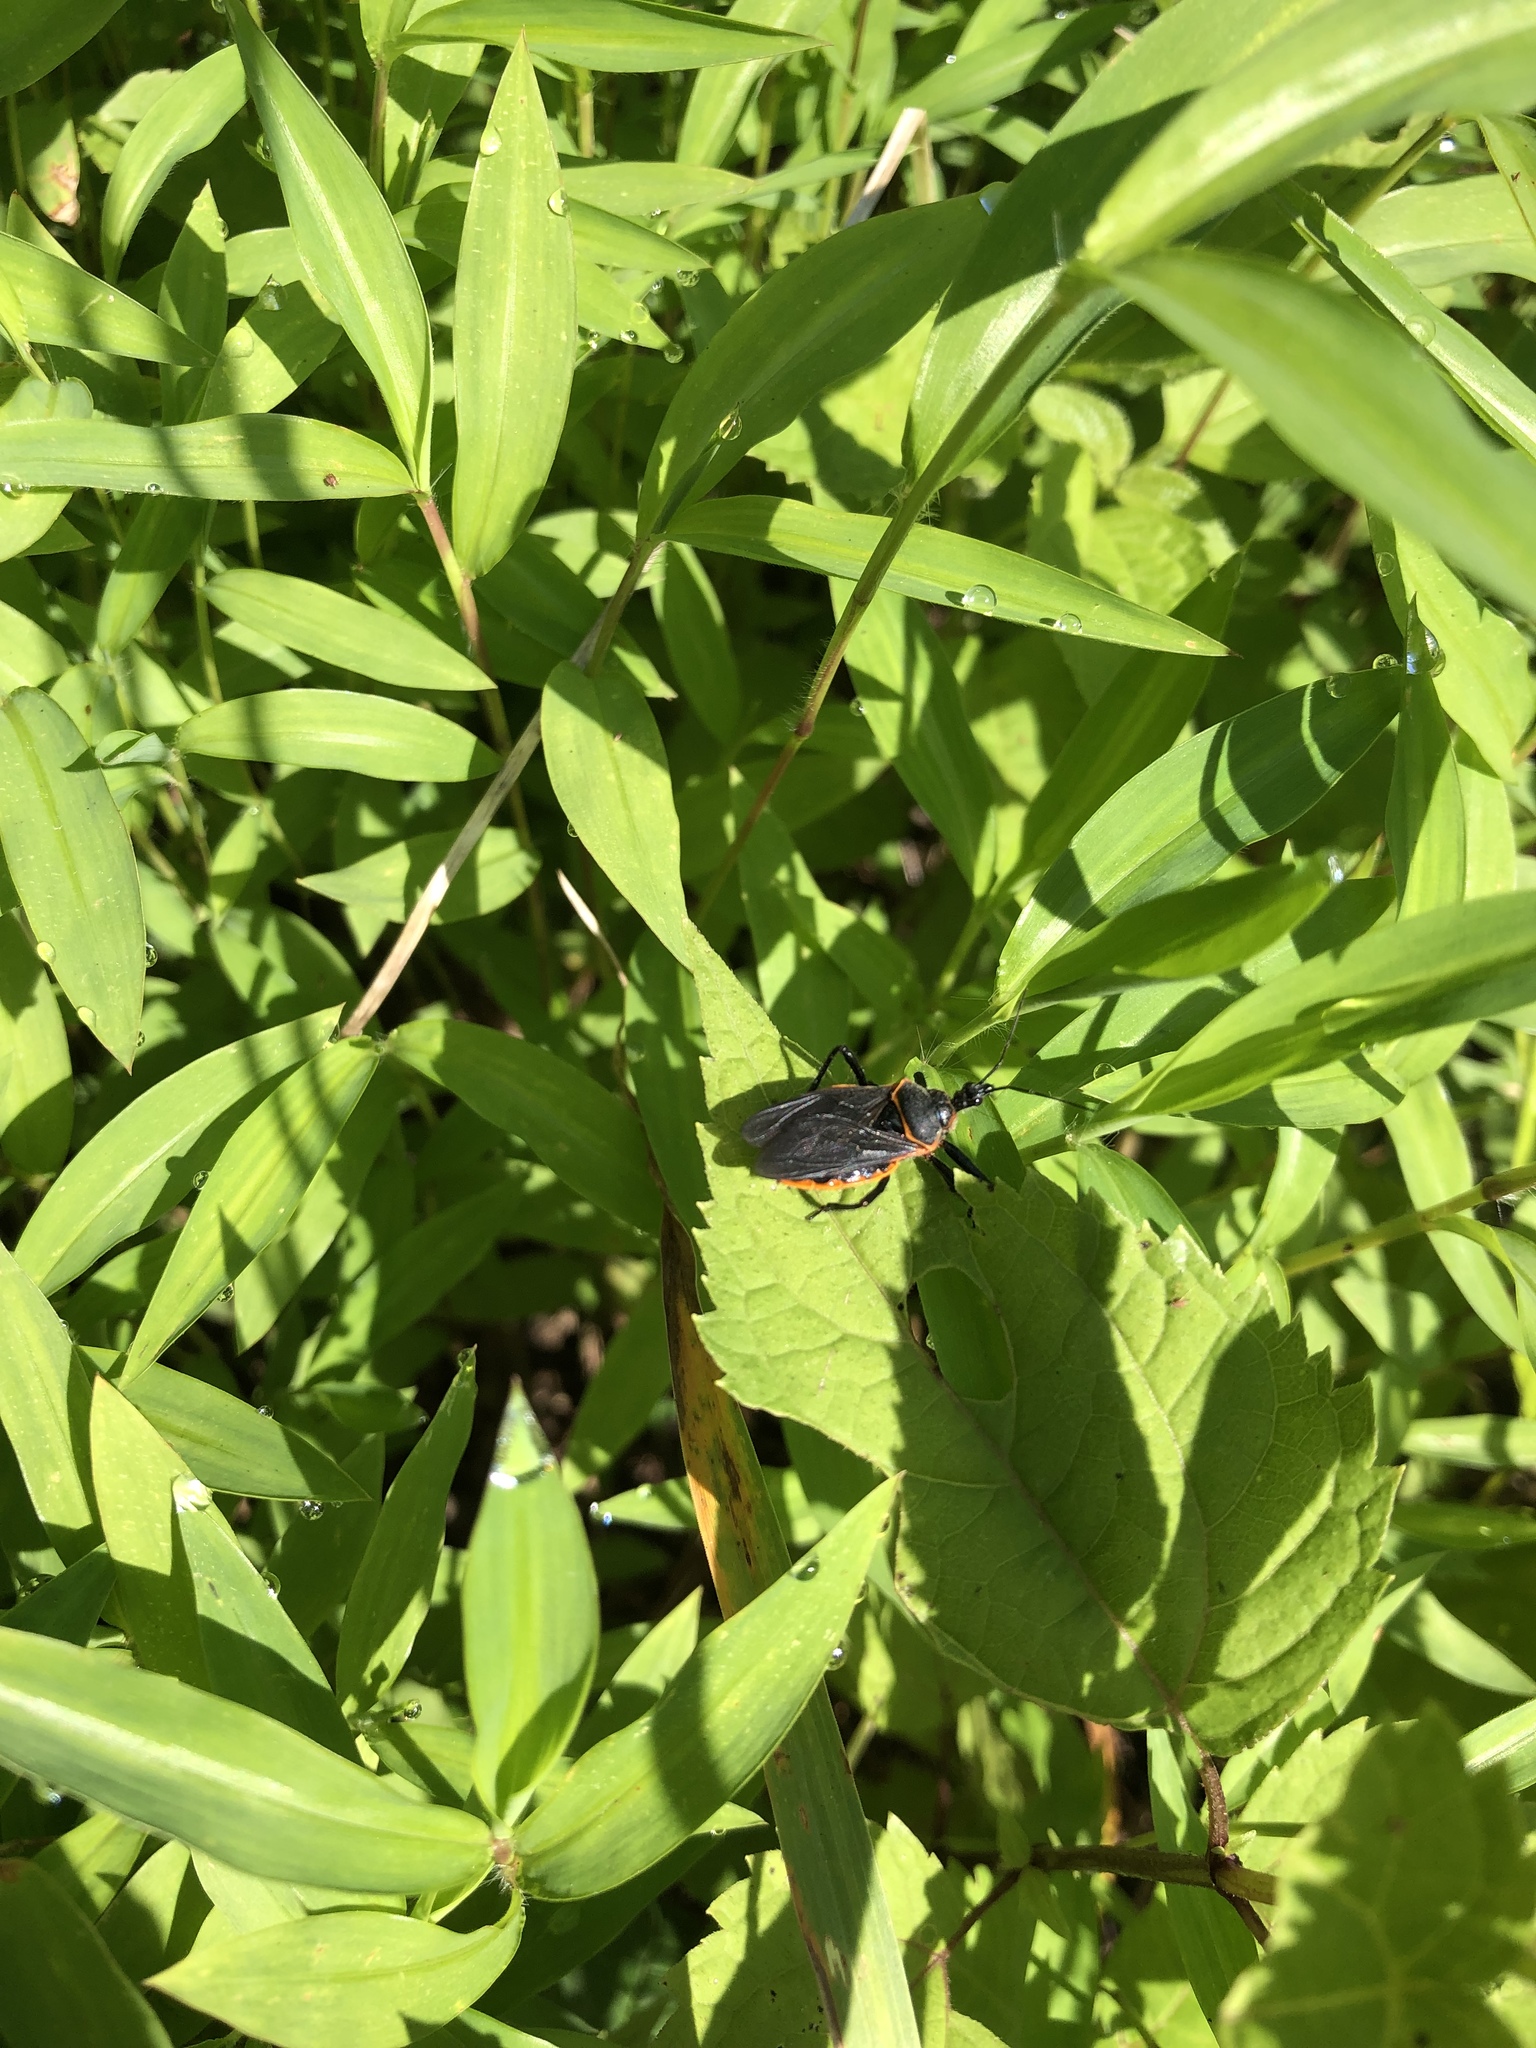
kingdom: Animalia
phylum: Arthropoda
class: Insecta
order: Hemiptera
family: Reduviidae
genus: Apiomerus
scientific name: Apiomerus crassipes
